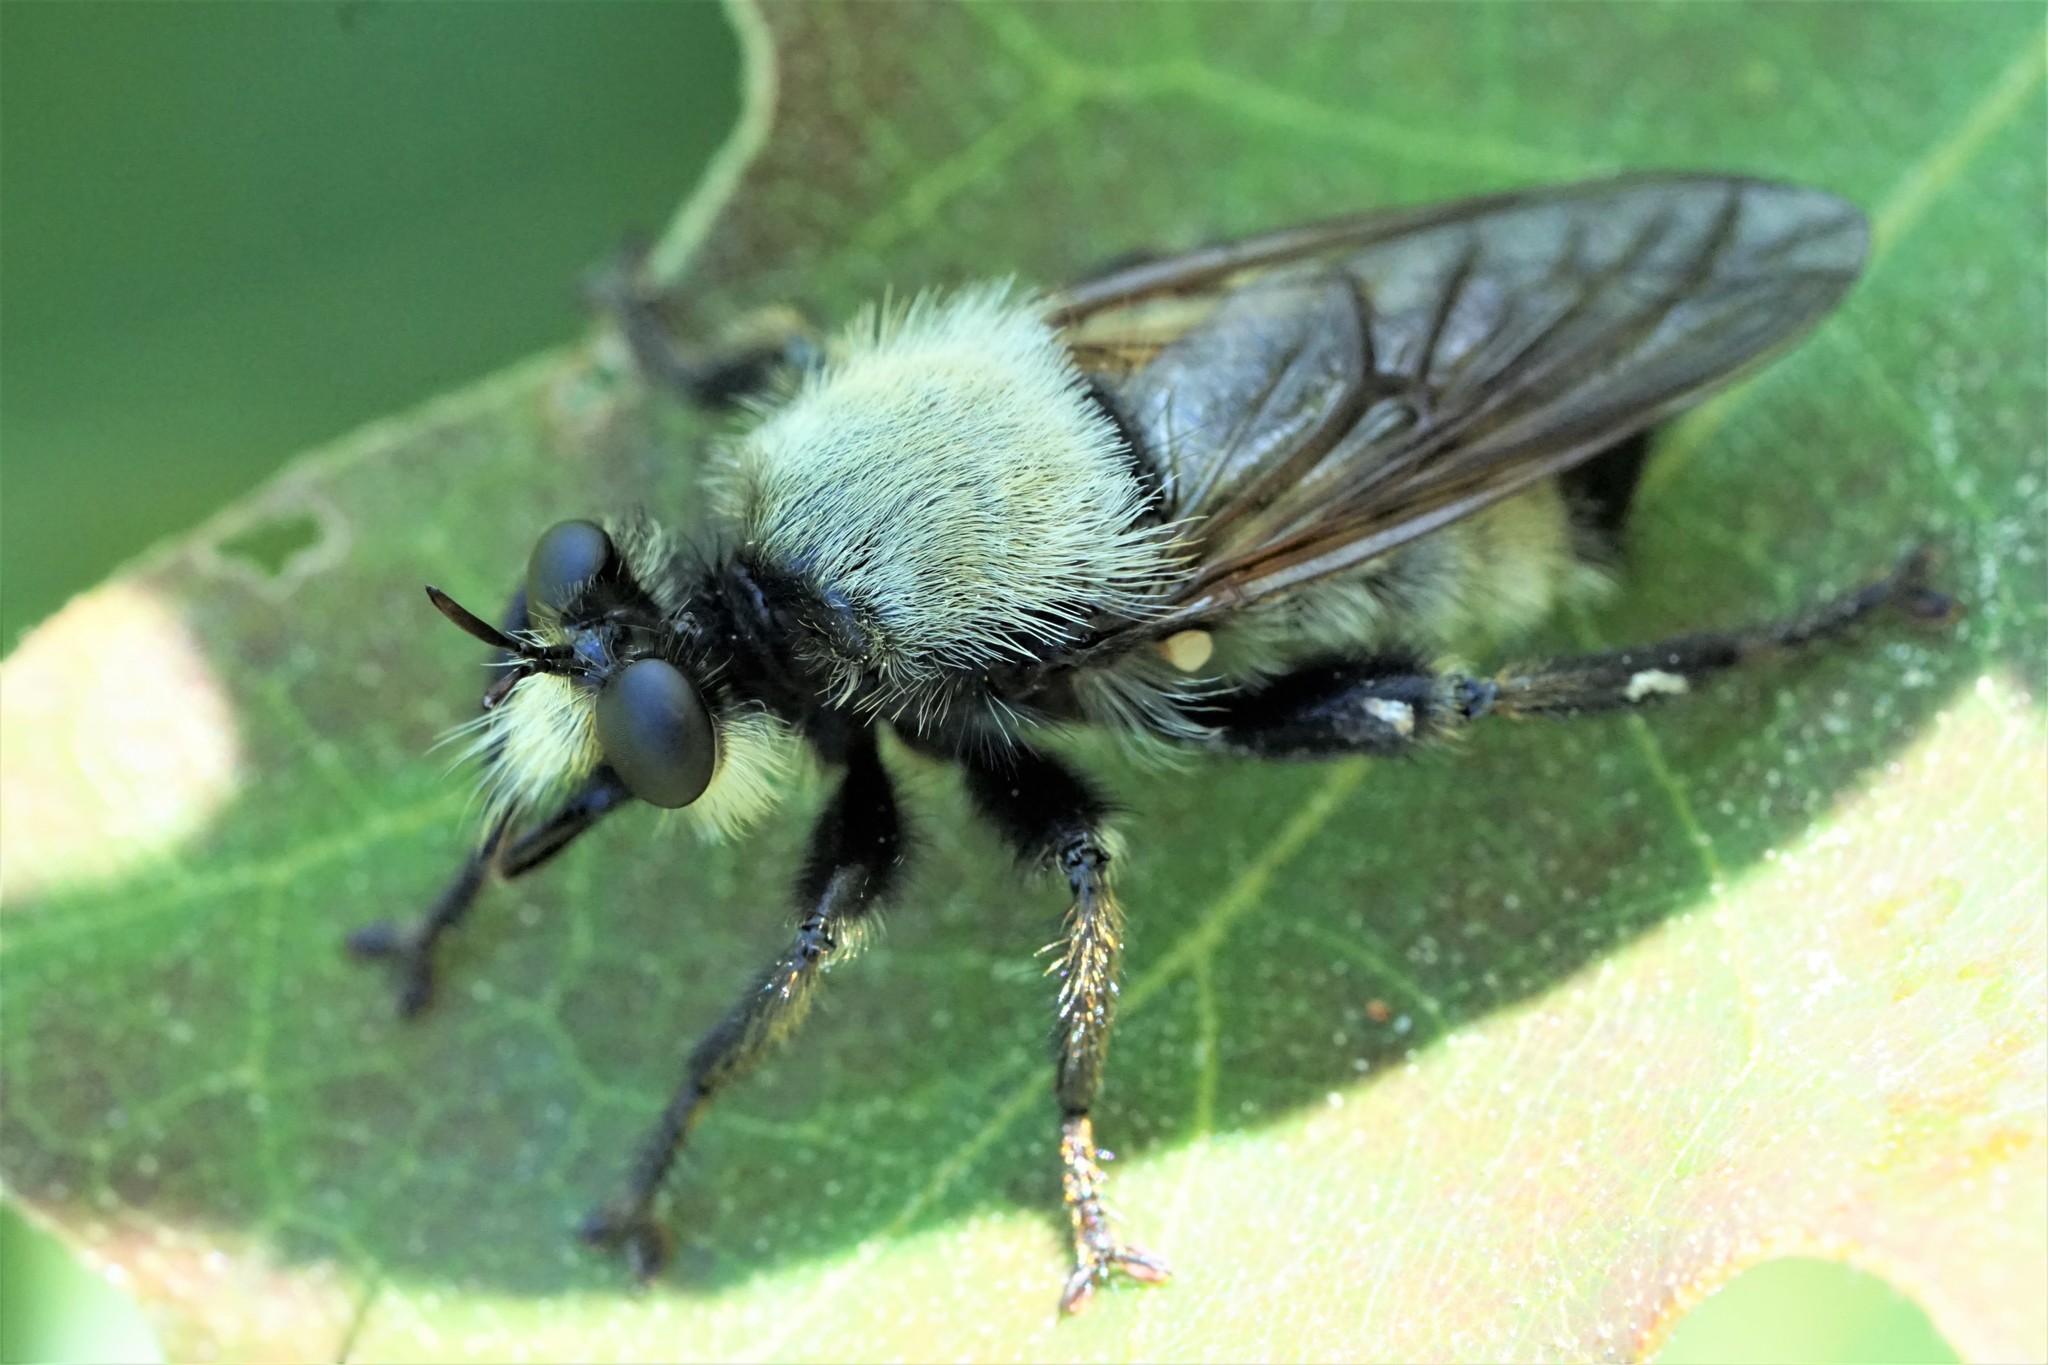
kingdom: Animalia
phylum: Arthropoda
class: Insecta
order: Diptera
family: Asilidae
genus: Laphria
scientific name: Laphria champlainii
